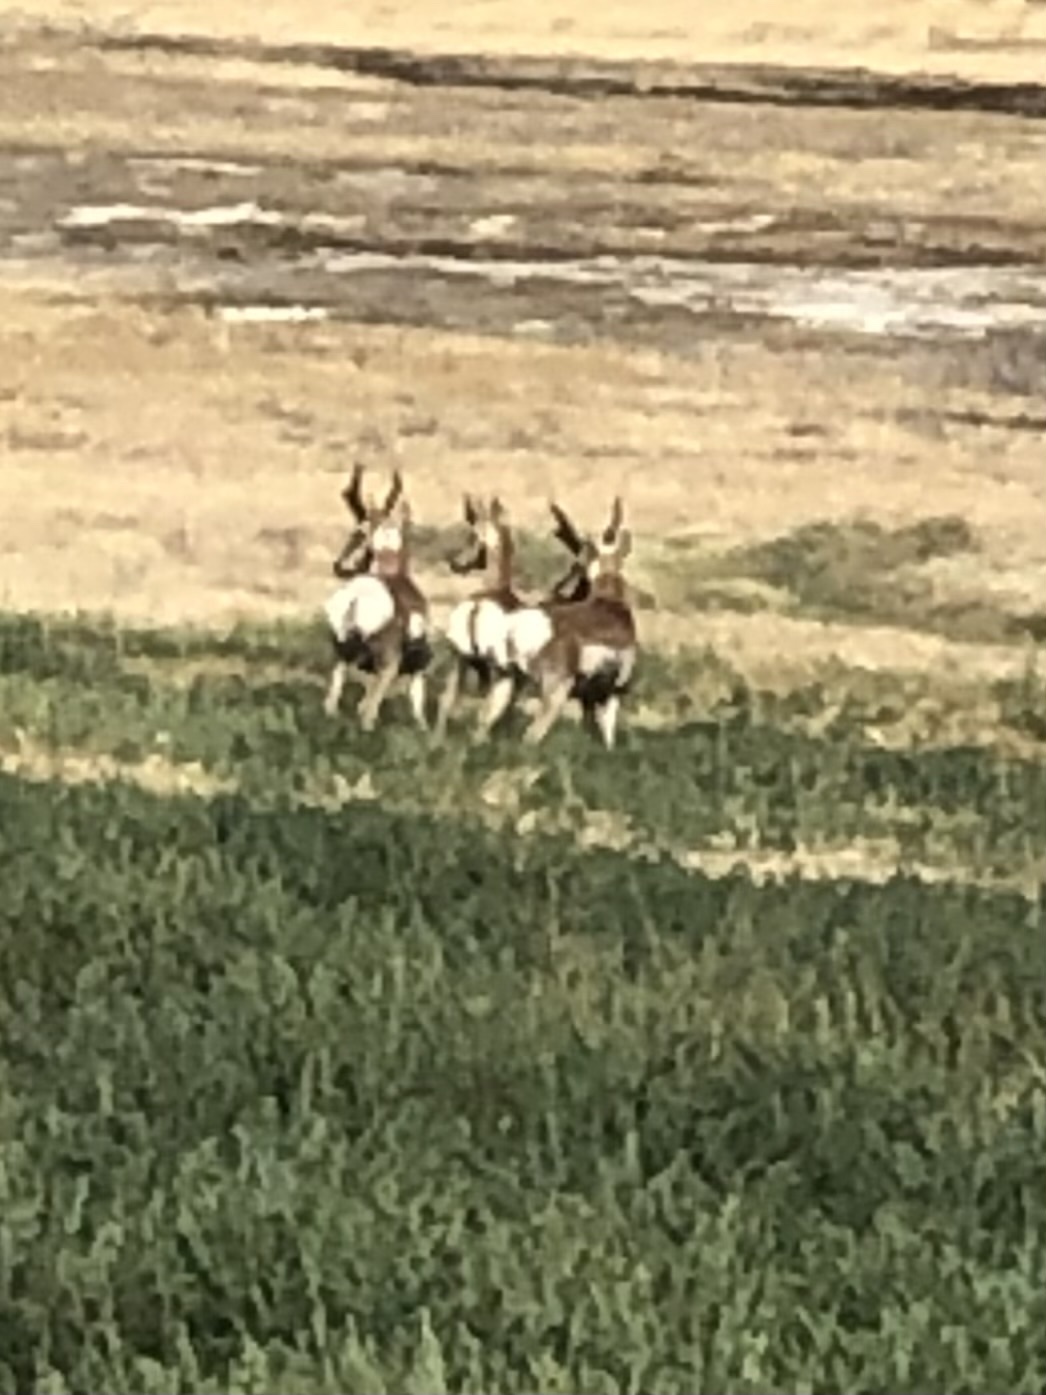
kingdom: Animalia
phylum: Chordata
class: Mammalia
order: Artiodactyla
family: Antilocapridae
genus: Antilocapra
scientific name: Antilocapra americana
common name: Pronghorn
